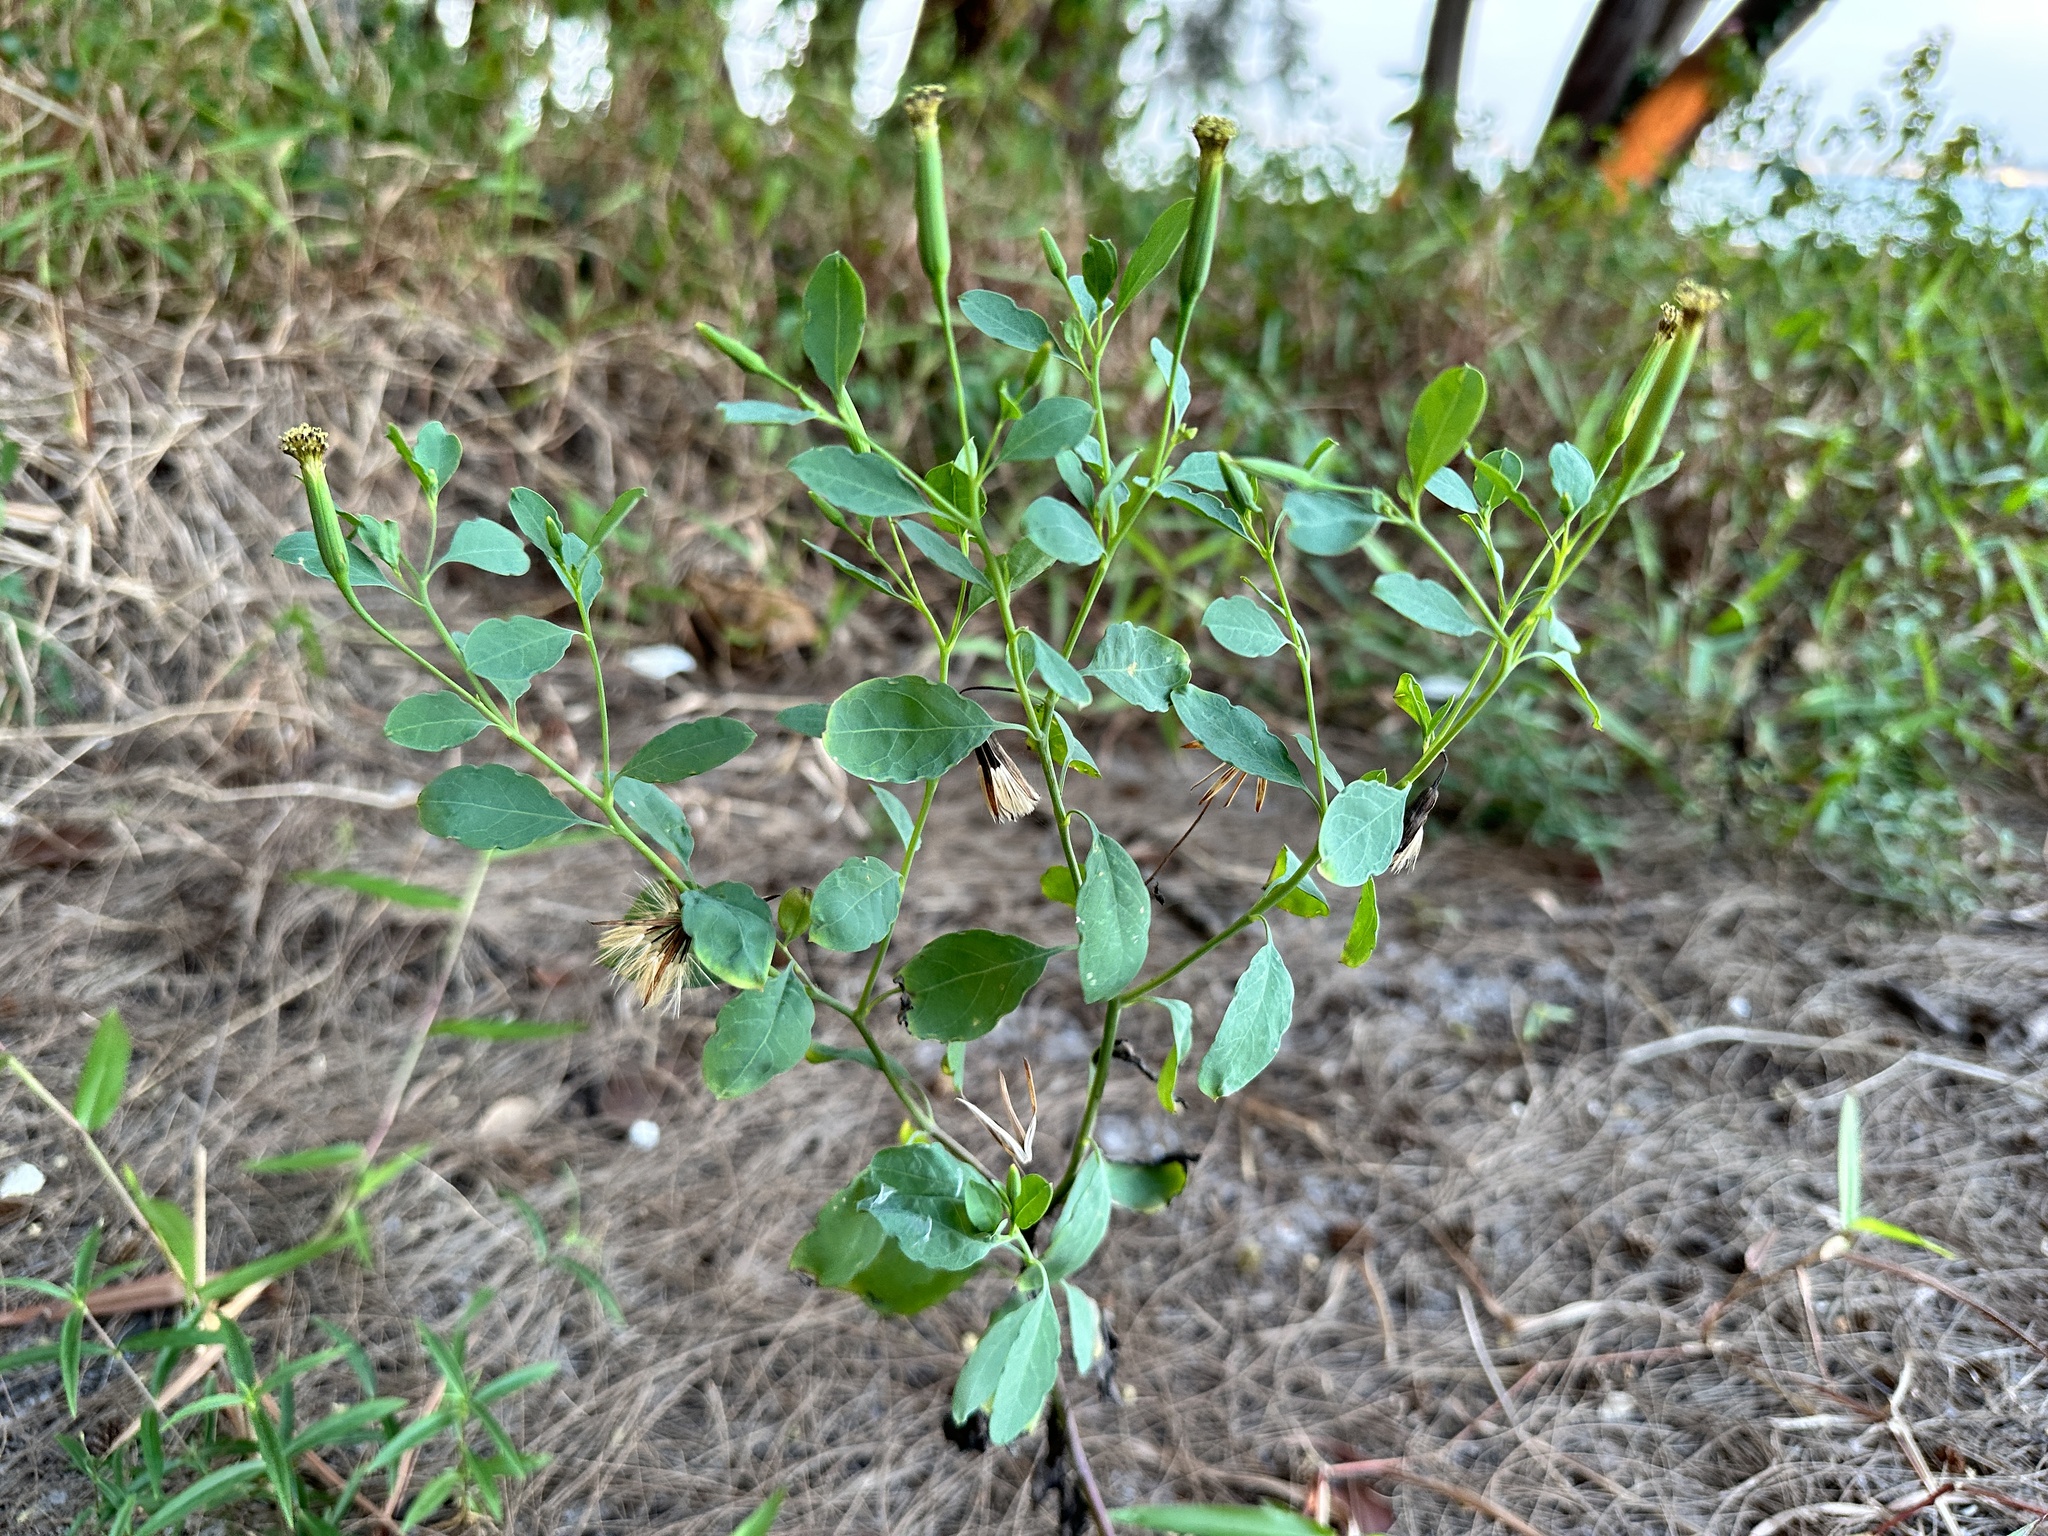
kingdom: Plantae
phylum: Tracheophyta
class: Magnoliopsida
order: Asterales
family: Asteraceae
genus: Porophyllum
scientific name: Porophyllum ruderale
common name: Yerba porosa
